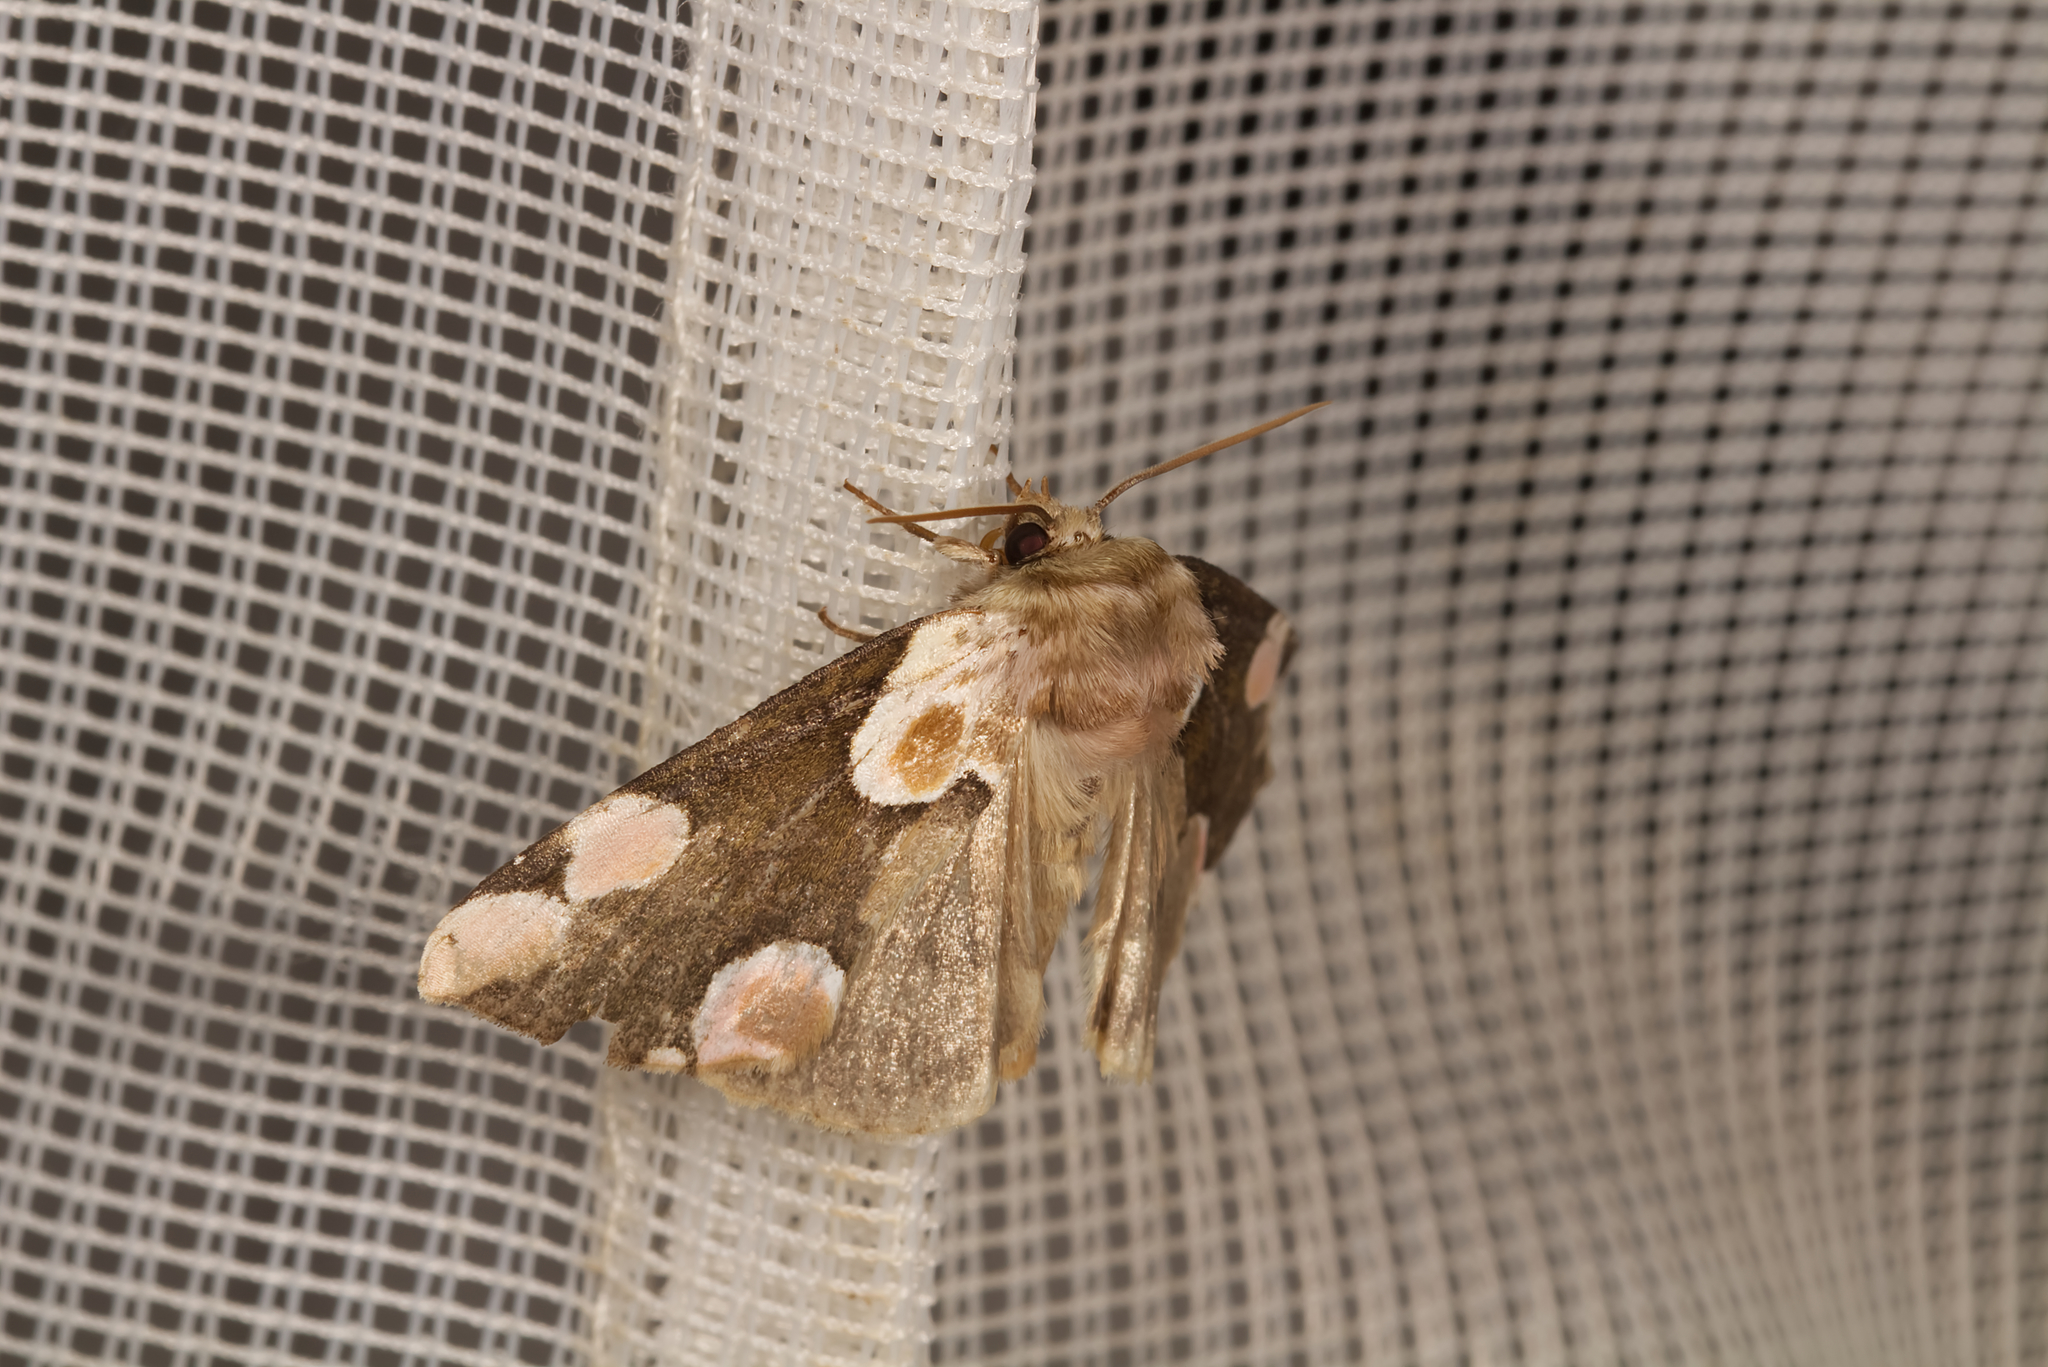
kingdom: Animalia
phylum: Arthropoda
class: Insecta
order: Lepidoptera
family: Drepanidae
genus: Thyatira
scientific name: Thyatira batis
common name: Peach blossom
